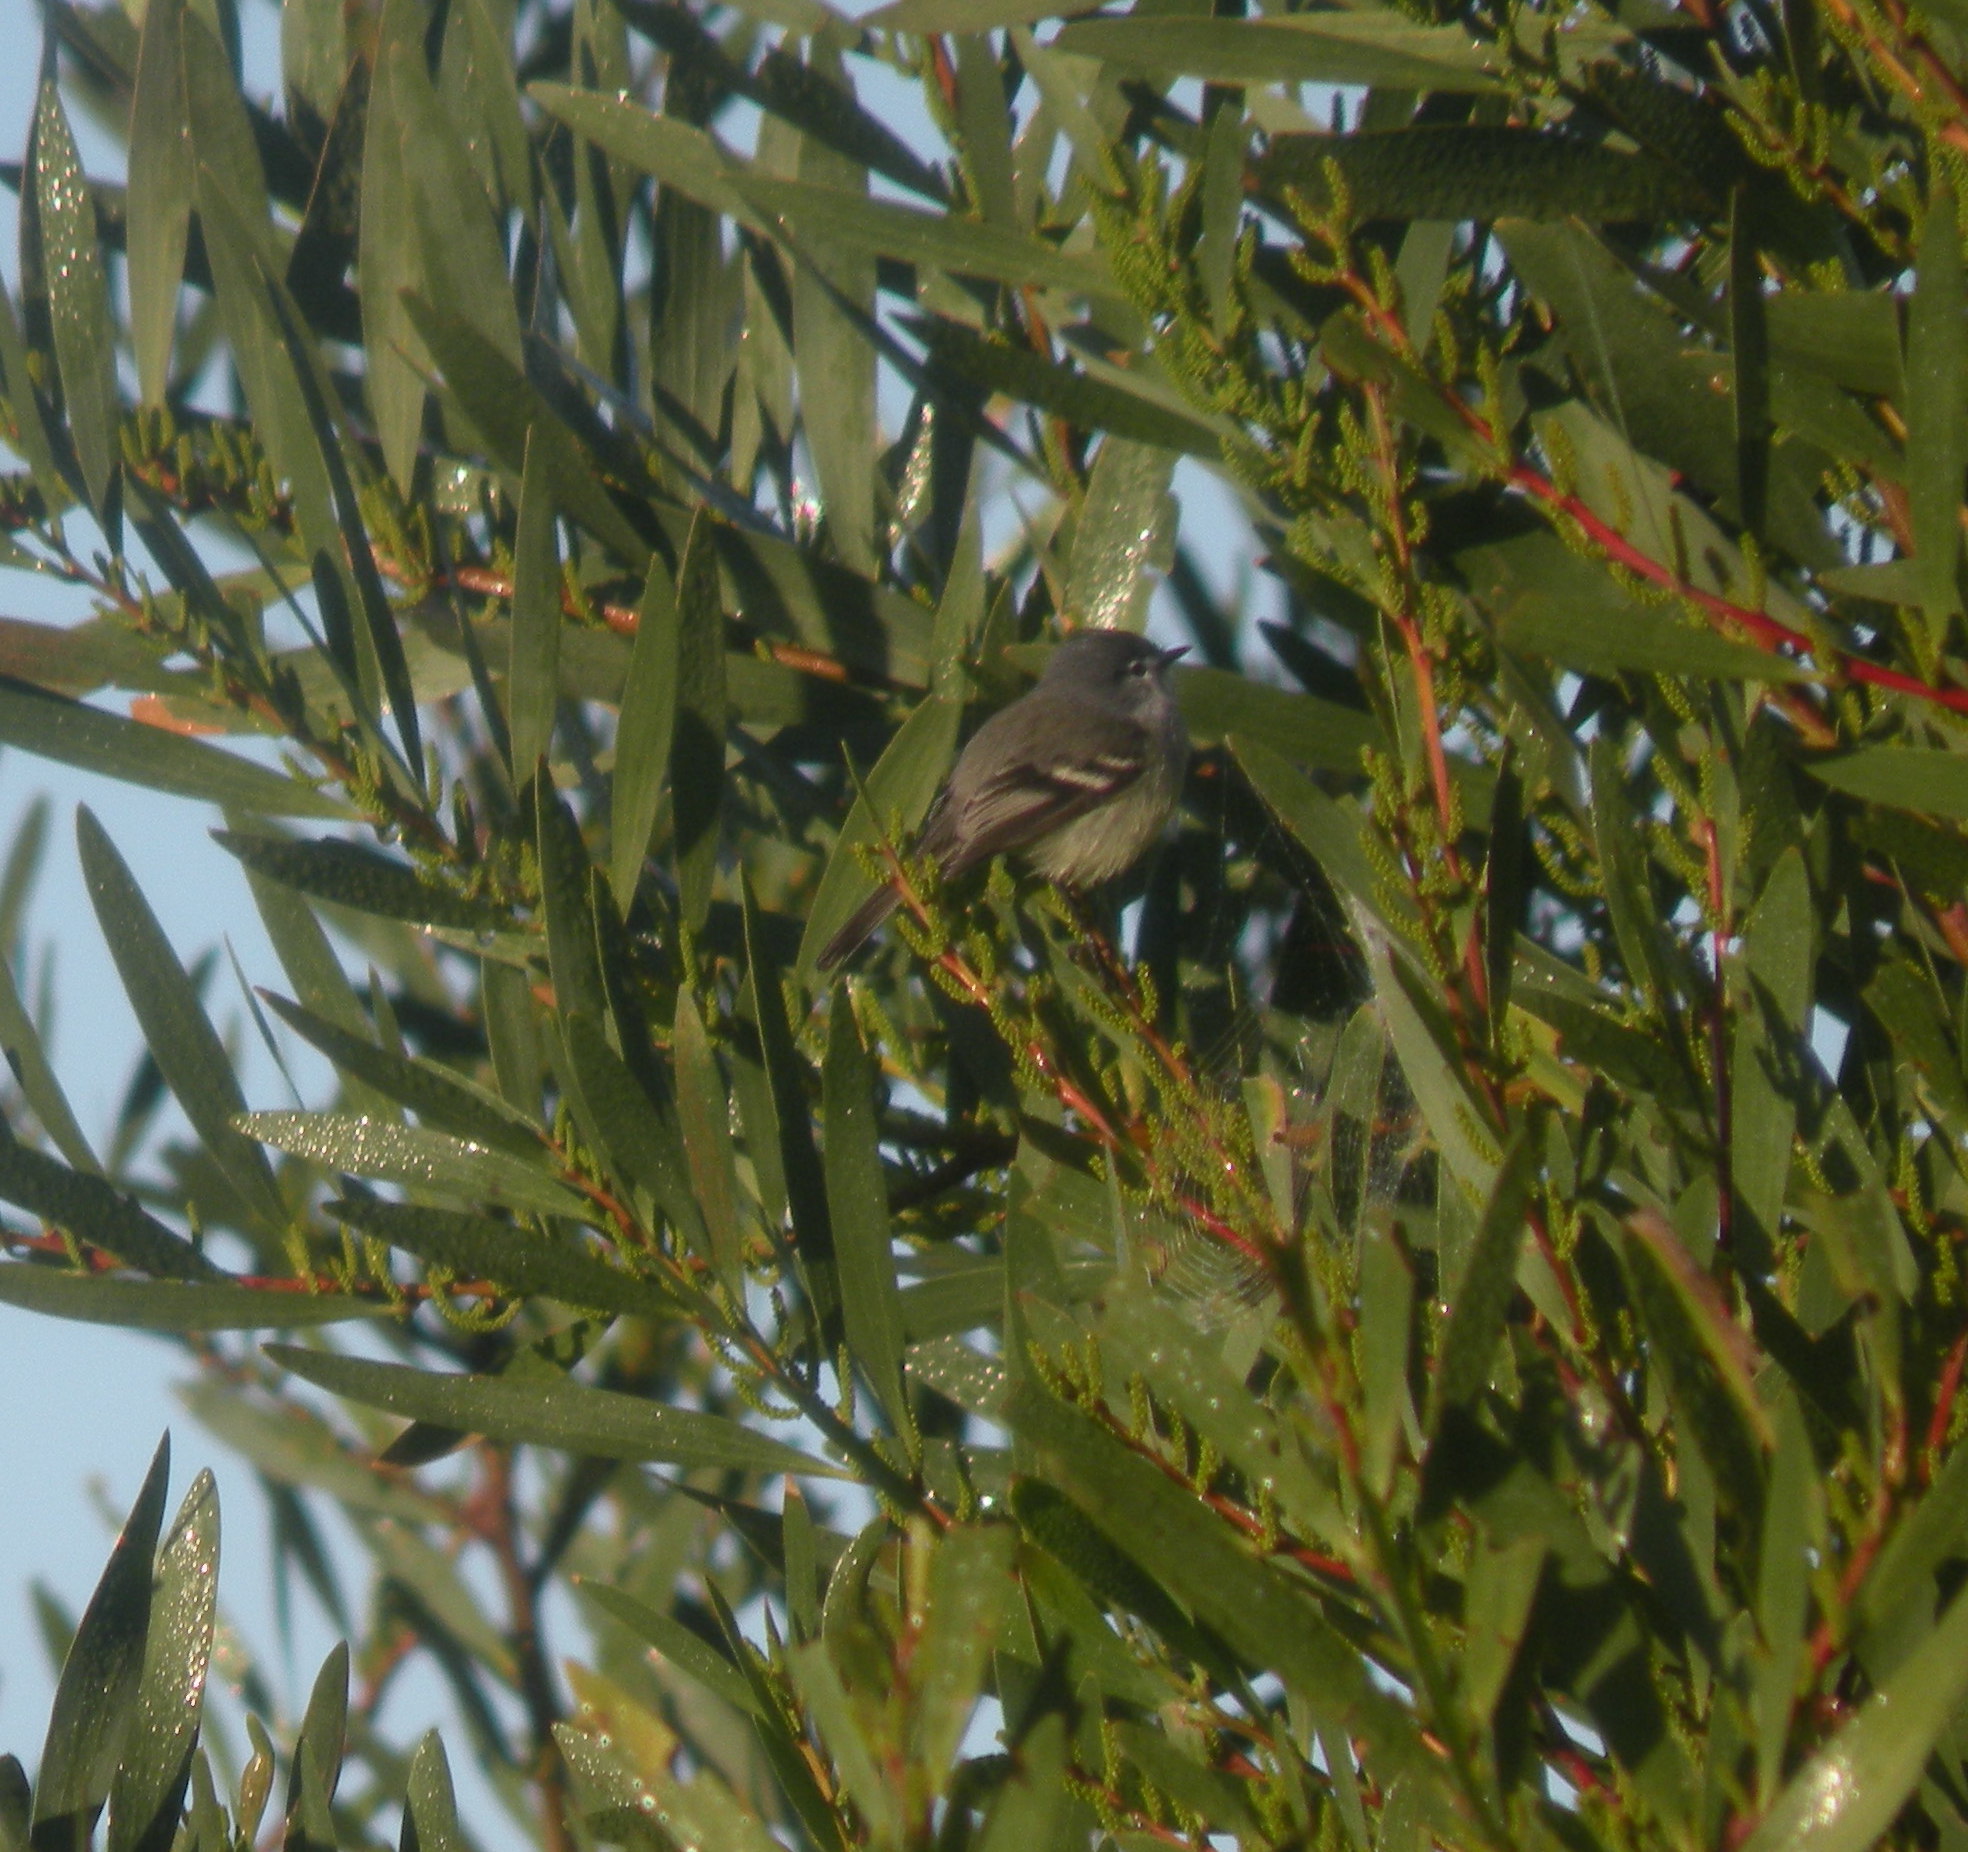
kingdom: Animalia
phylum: Chordata
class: Aves
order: Passeriformes
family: Tyrannidae
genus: Serpophaga
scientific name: Serpophaga subcristata
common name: White-crested tyrannulet
